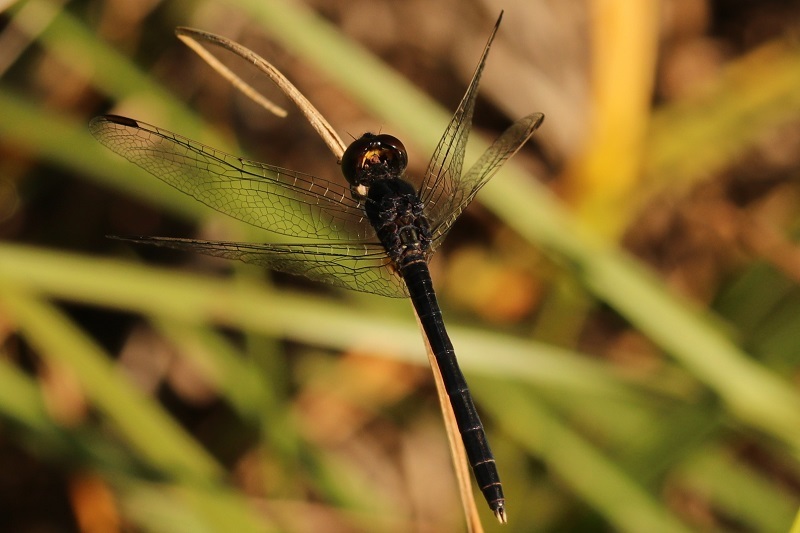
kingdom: Animalia
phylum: Arthropoda
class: Insecta
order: Odonata
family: Libellulidae
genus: Diplacodes
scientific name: Diplacodes lefebvrii
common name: Black percher
